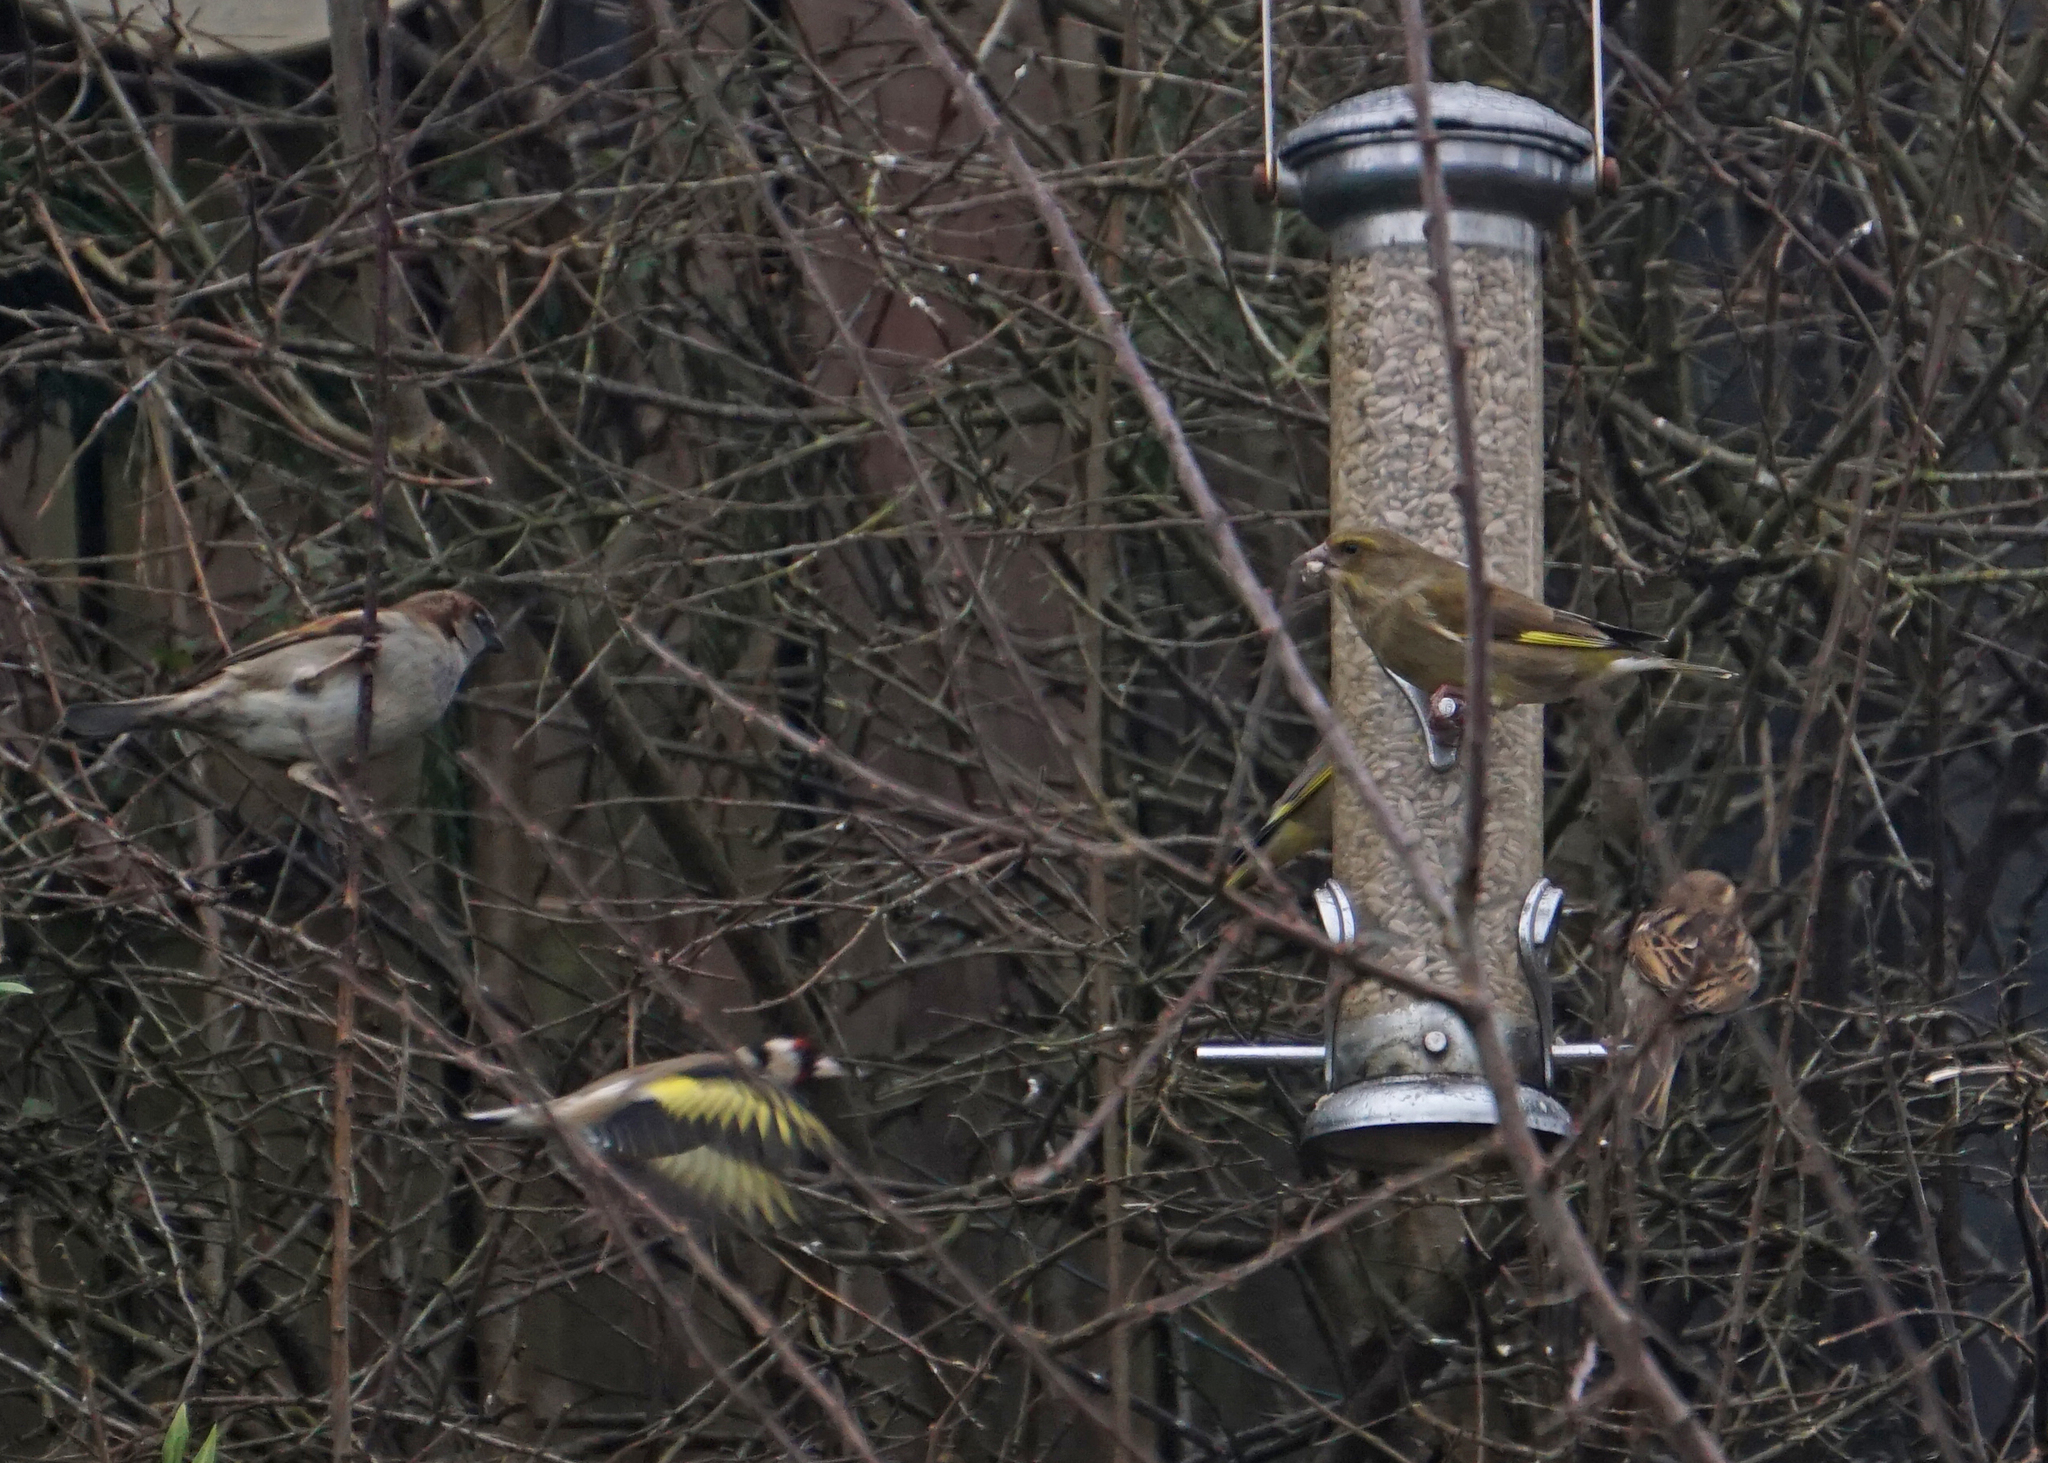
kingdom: Plantae
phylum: Tracheophyta
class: Liliopsida
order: Poales
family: Poaceae
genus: Chloris
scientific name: Chloris chloris
